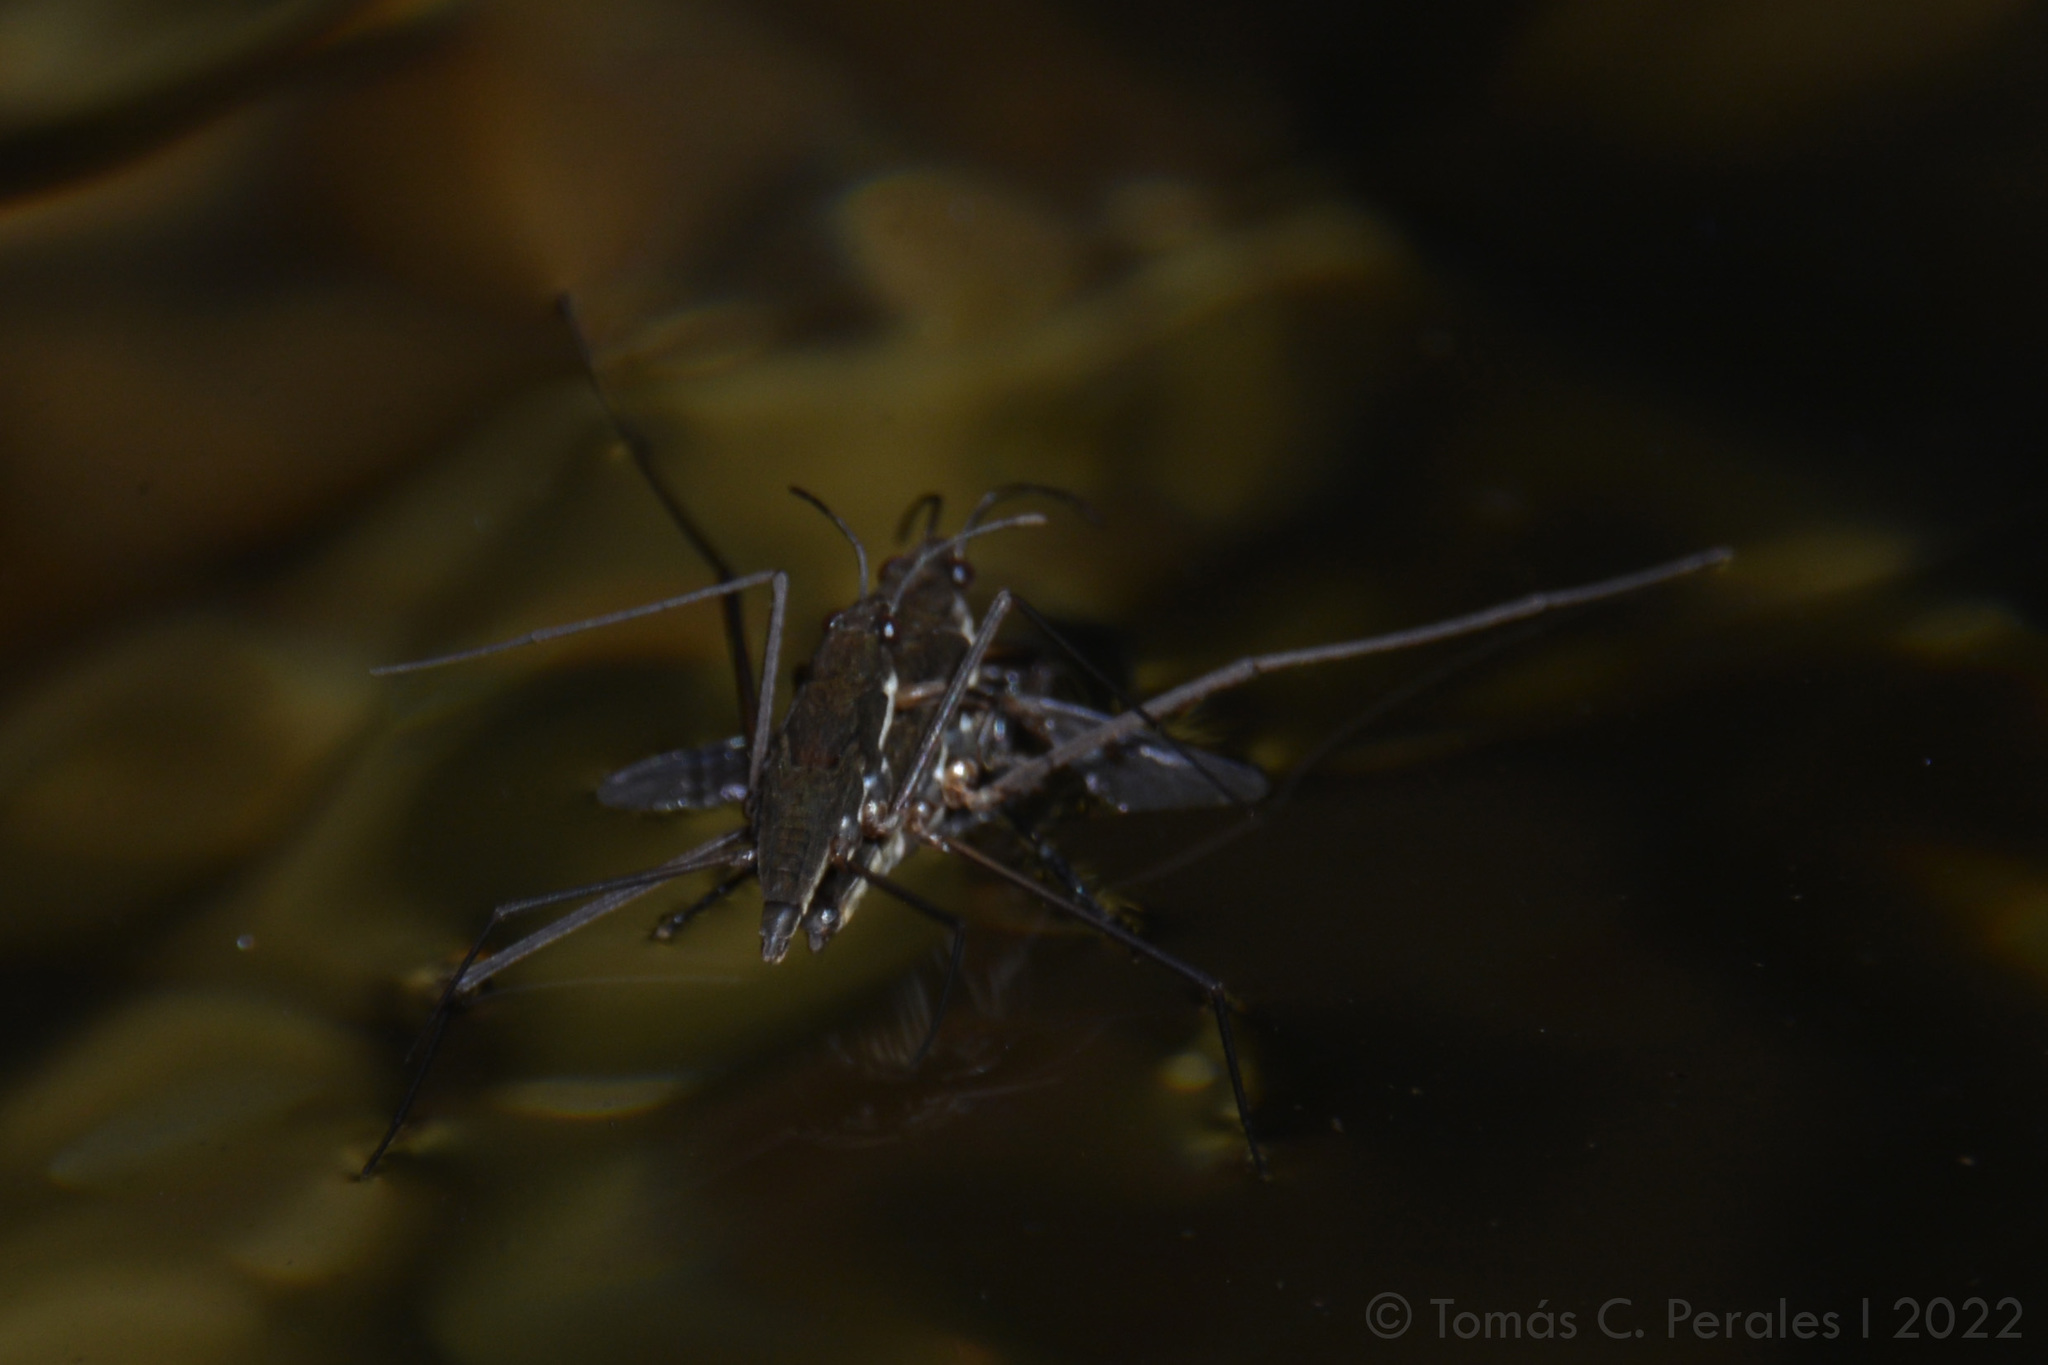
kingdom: Animalia
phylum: Arthropoda
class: Insecta
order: Hemiptera
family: Gerridae
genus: Eurygerris
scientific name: Eurygerris fuscinervis
